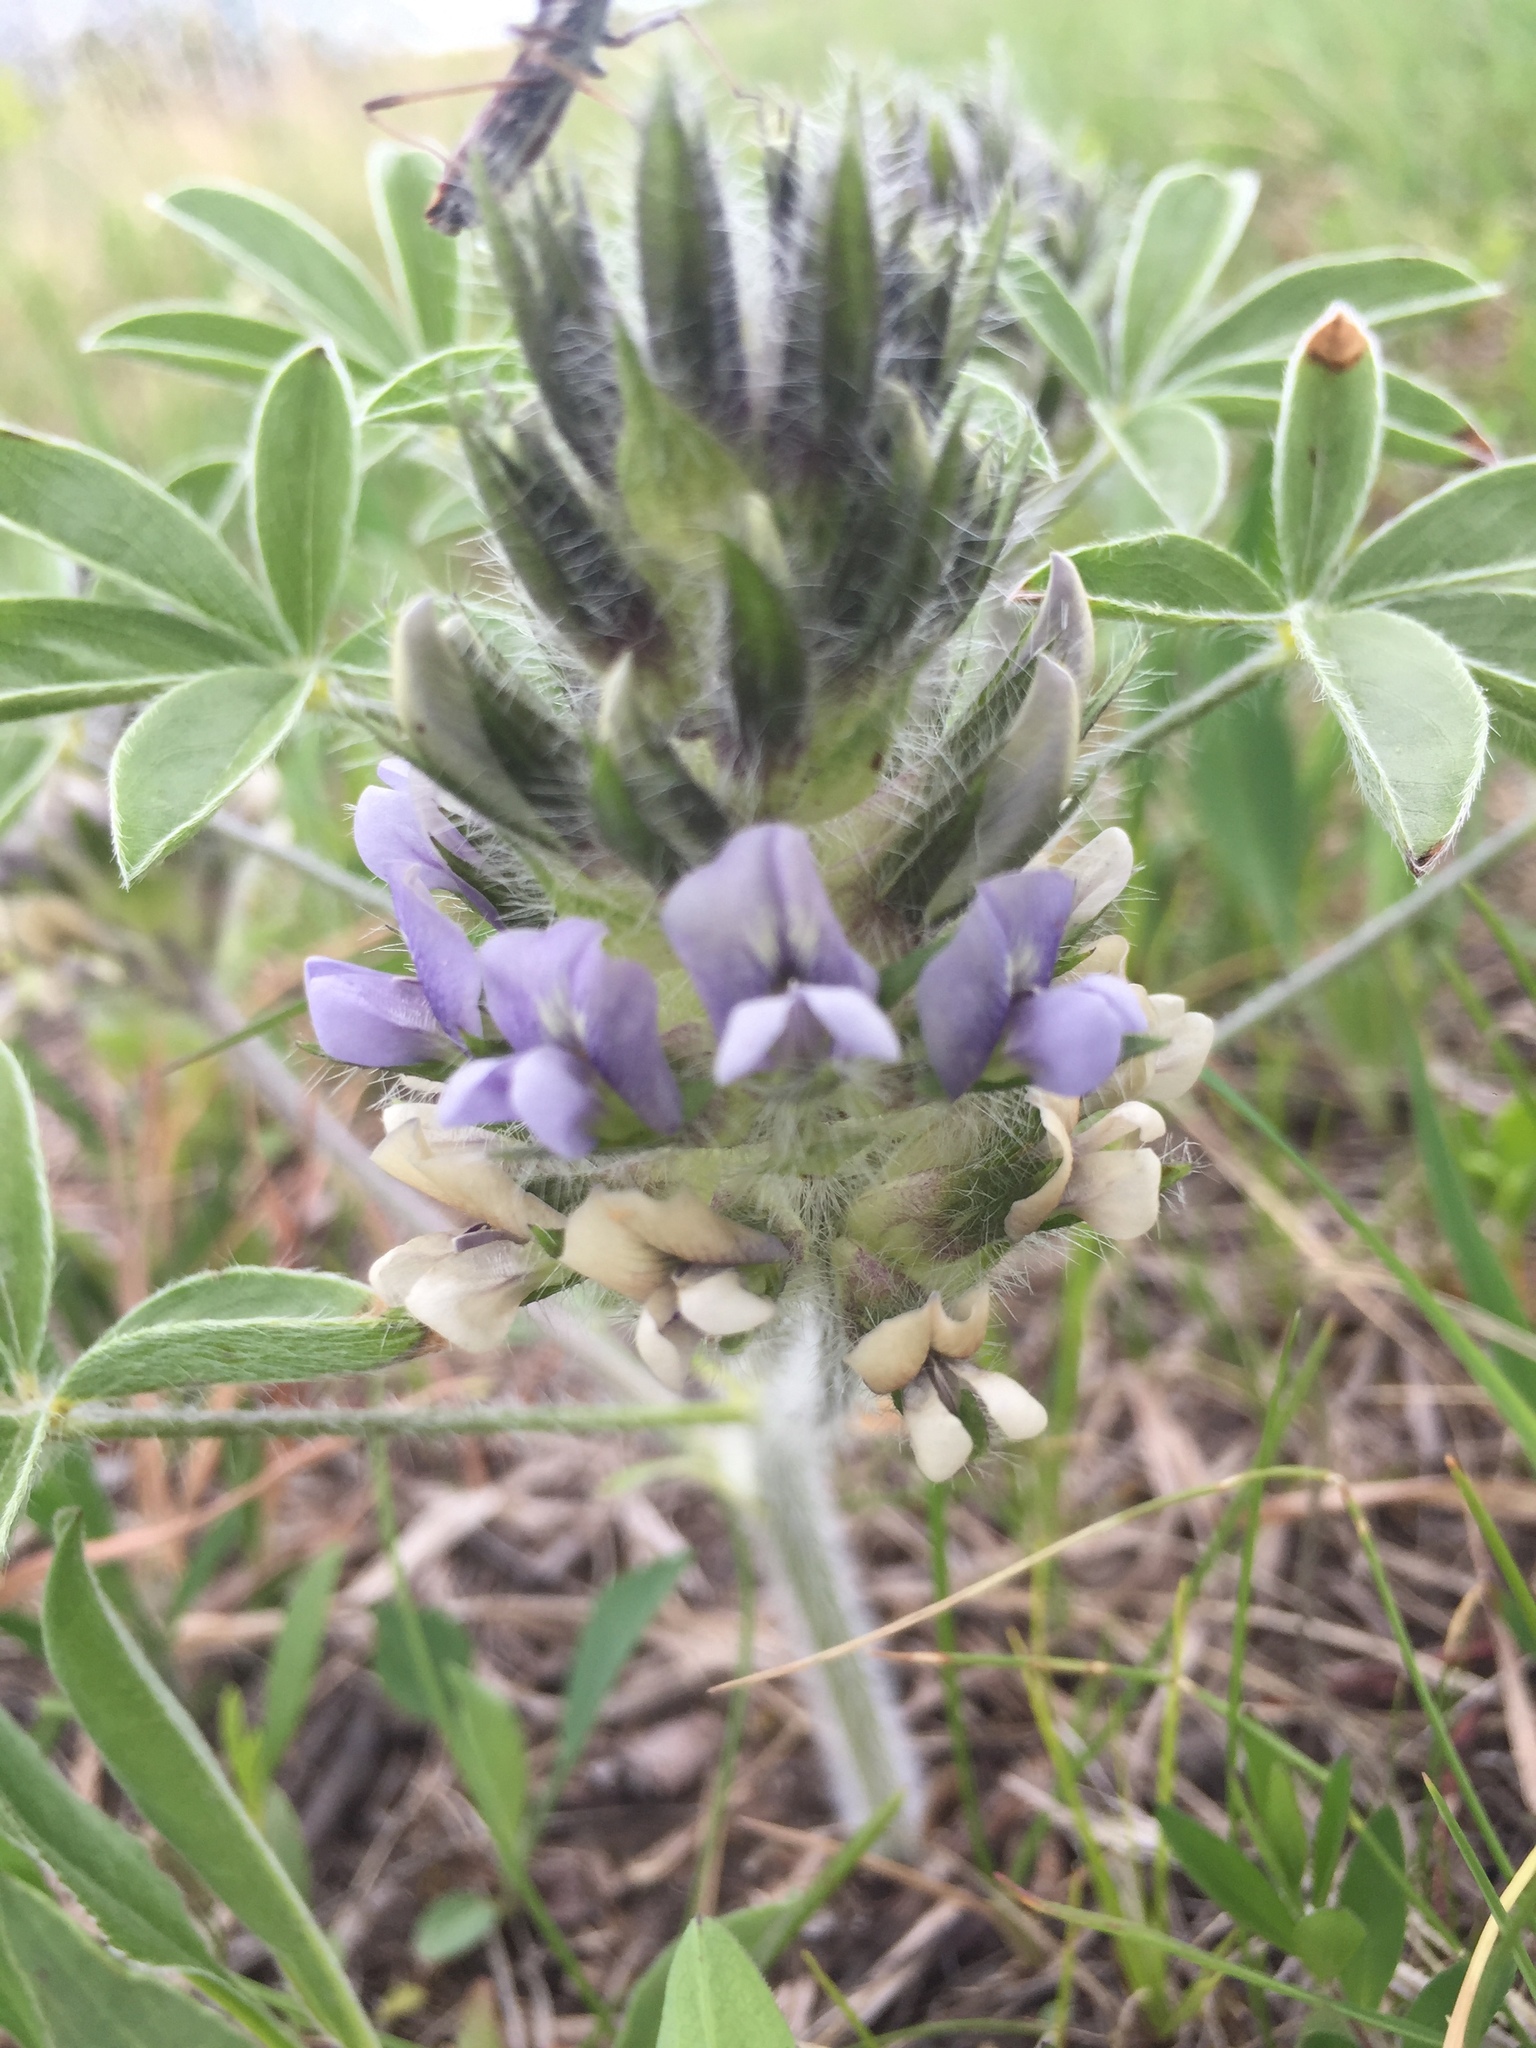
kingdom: Plantae
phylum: Tracheophyta
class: Magnoliopsida
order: Fabales
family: Fabaceae
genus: Pediomelum
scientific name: Pediomelum esculentum
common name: Indian-turnip
